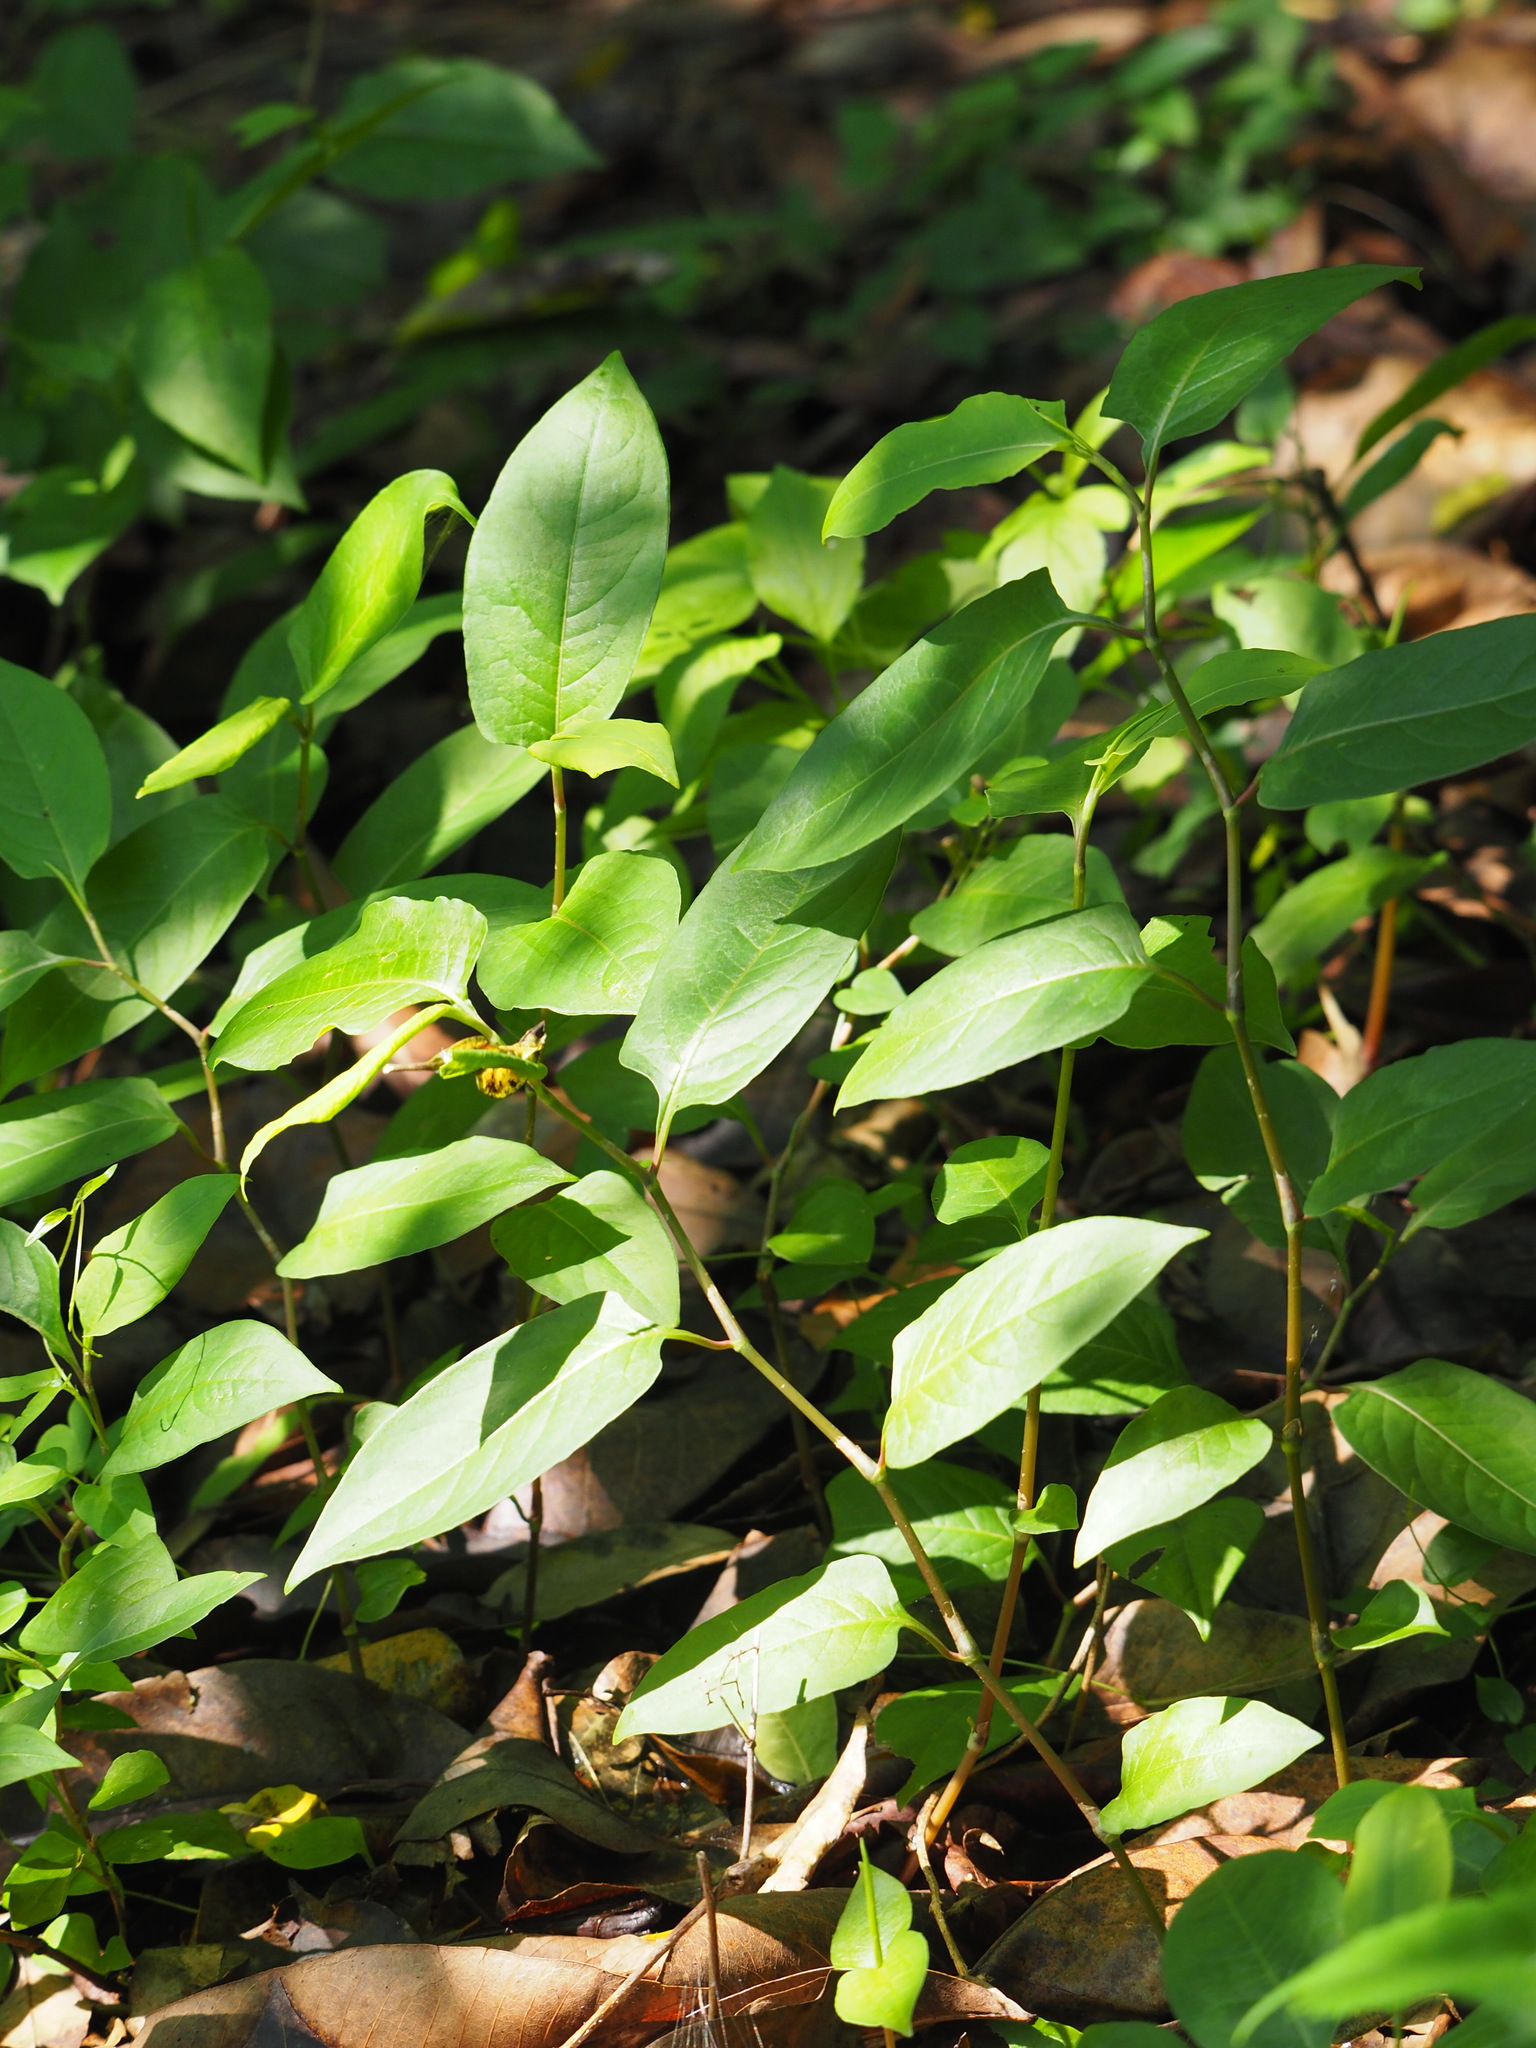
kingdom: Plantae
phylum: Tracheophyta
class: Magnoliopsida
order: Caryophyllales
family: Polygonaceae
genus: Persicaria
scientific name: Persicaria chinensis
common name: Chinese knotweed
